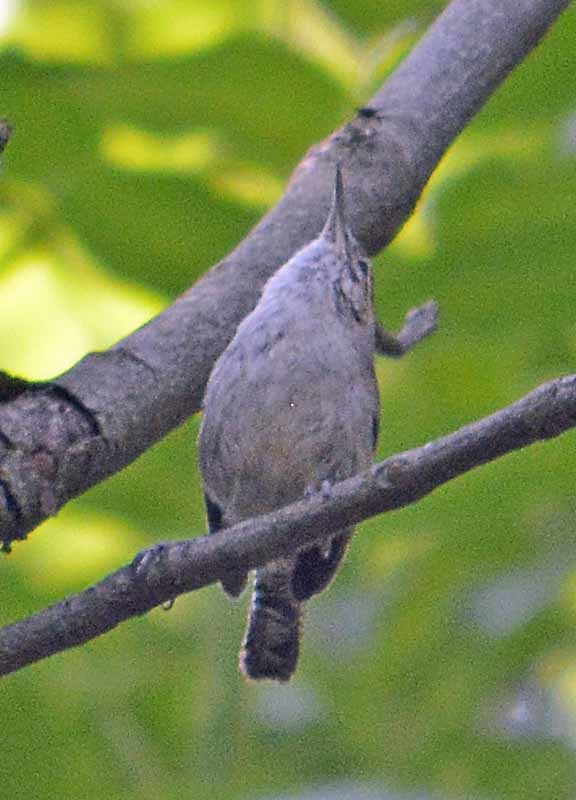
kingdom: Animalia
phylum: Chordata
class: Aves
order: Passeriformes
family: Troglodytidae
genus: Thryomanes
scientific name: Thryomanes bewickii
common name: Bewick's wren
